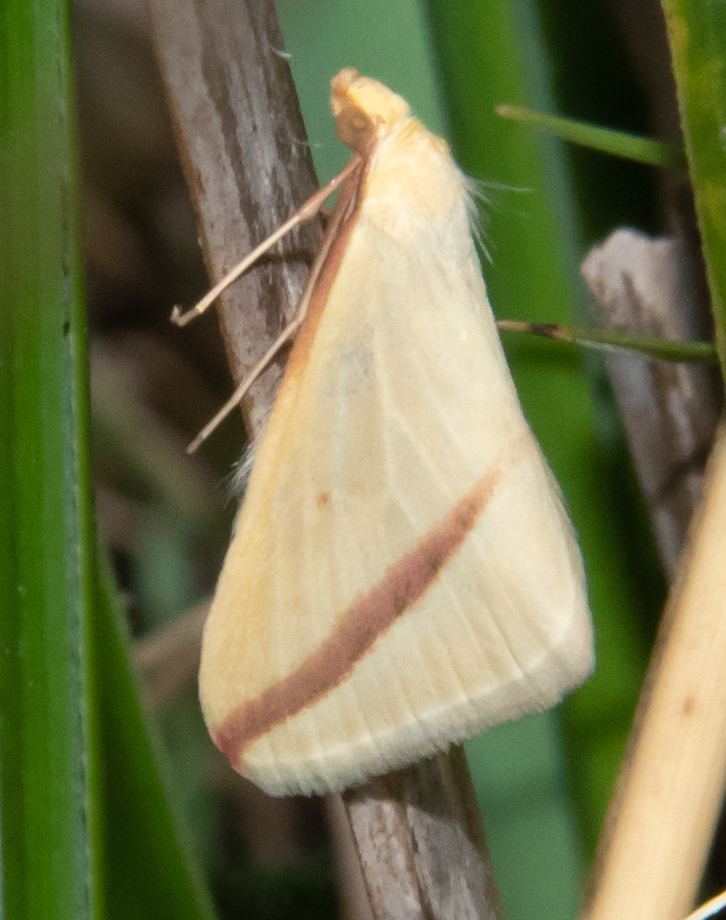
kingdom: Animalia
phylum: Arthropoda
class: Insecta
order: Lepidoptera
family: Geometridae
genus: Rhodometra
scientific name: Rhodometra sacraria
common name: Vestal
